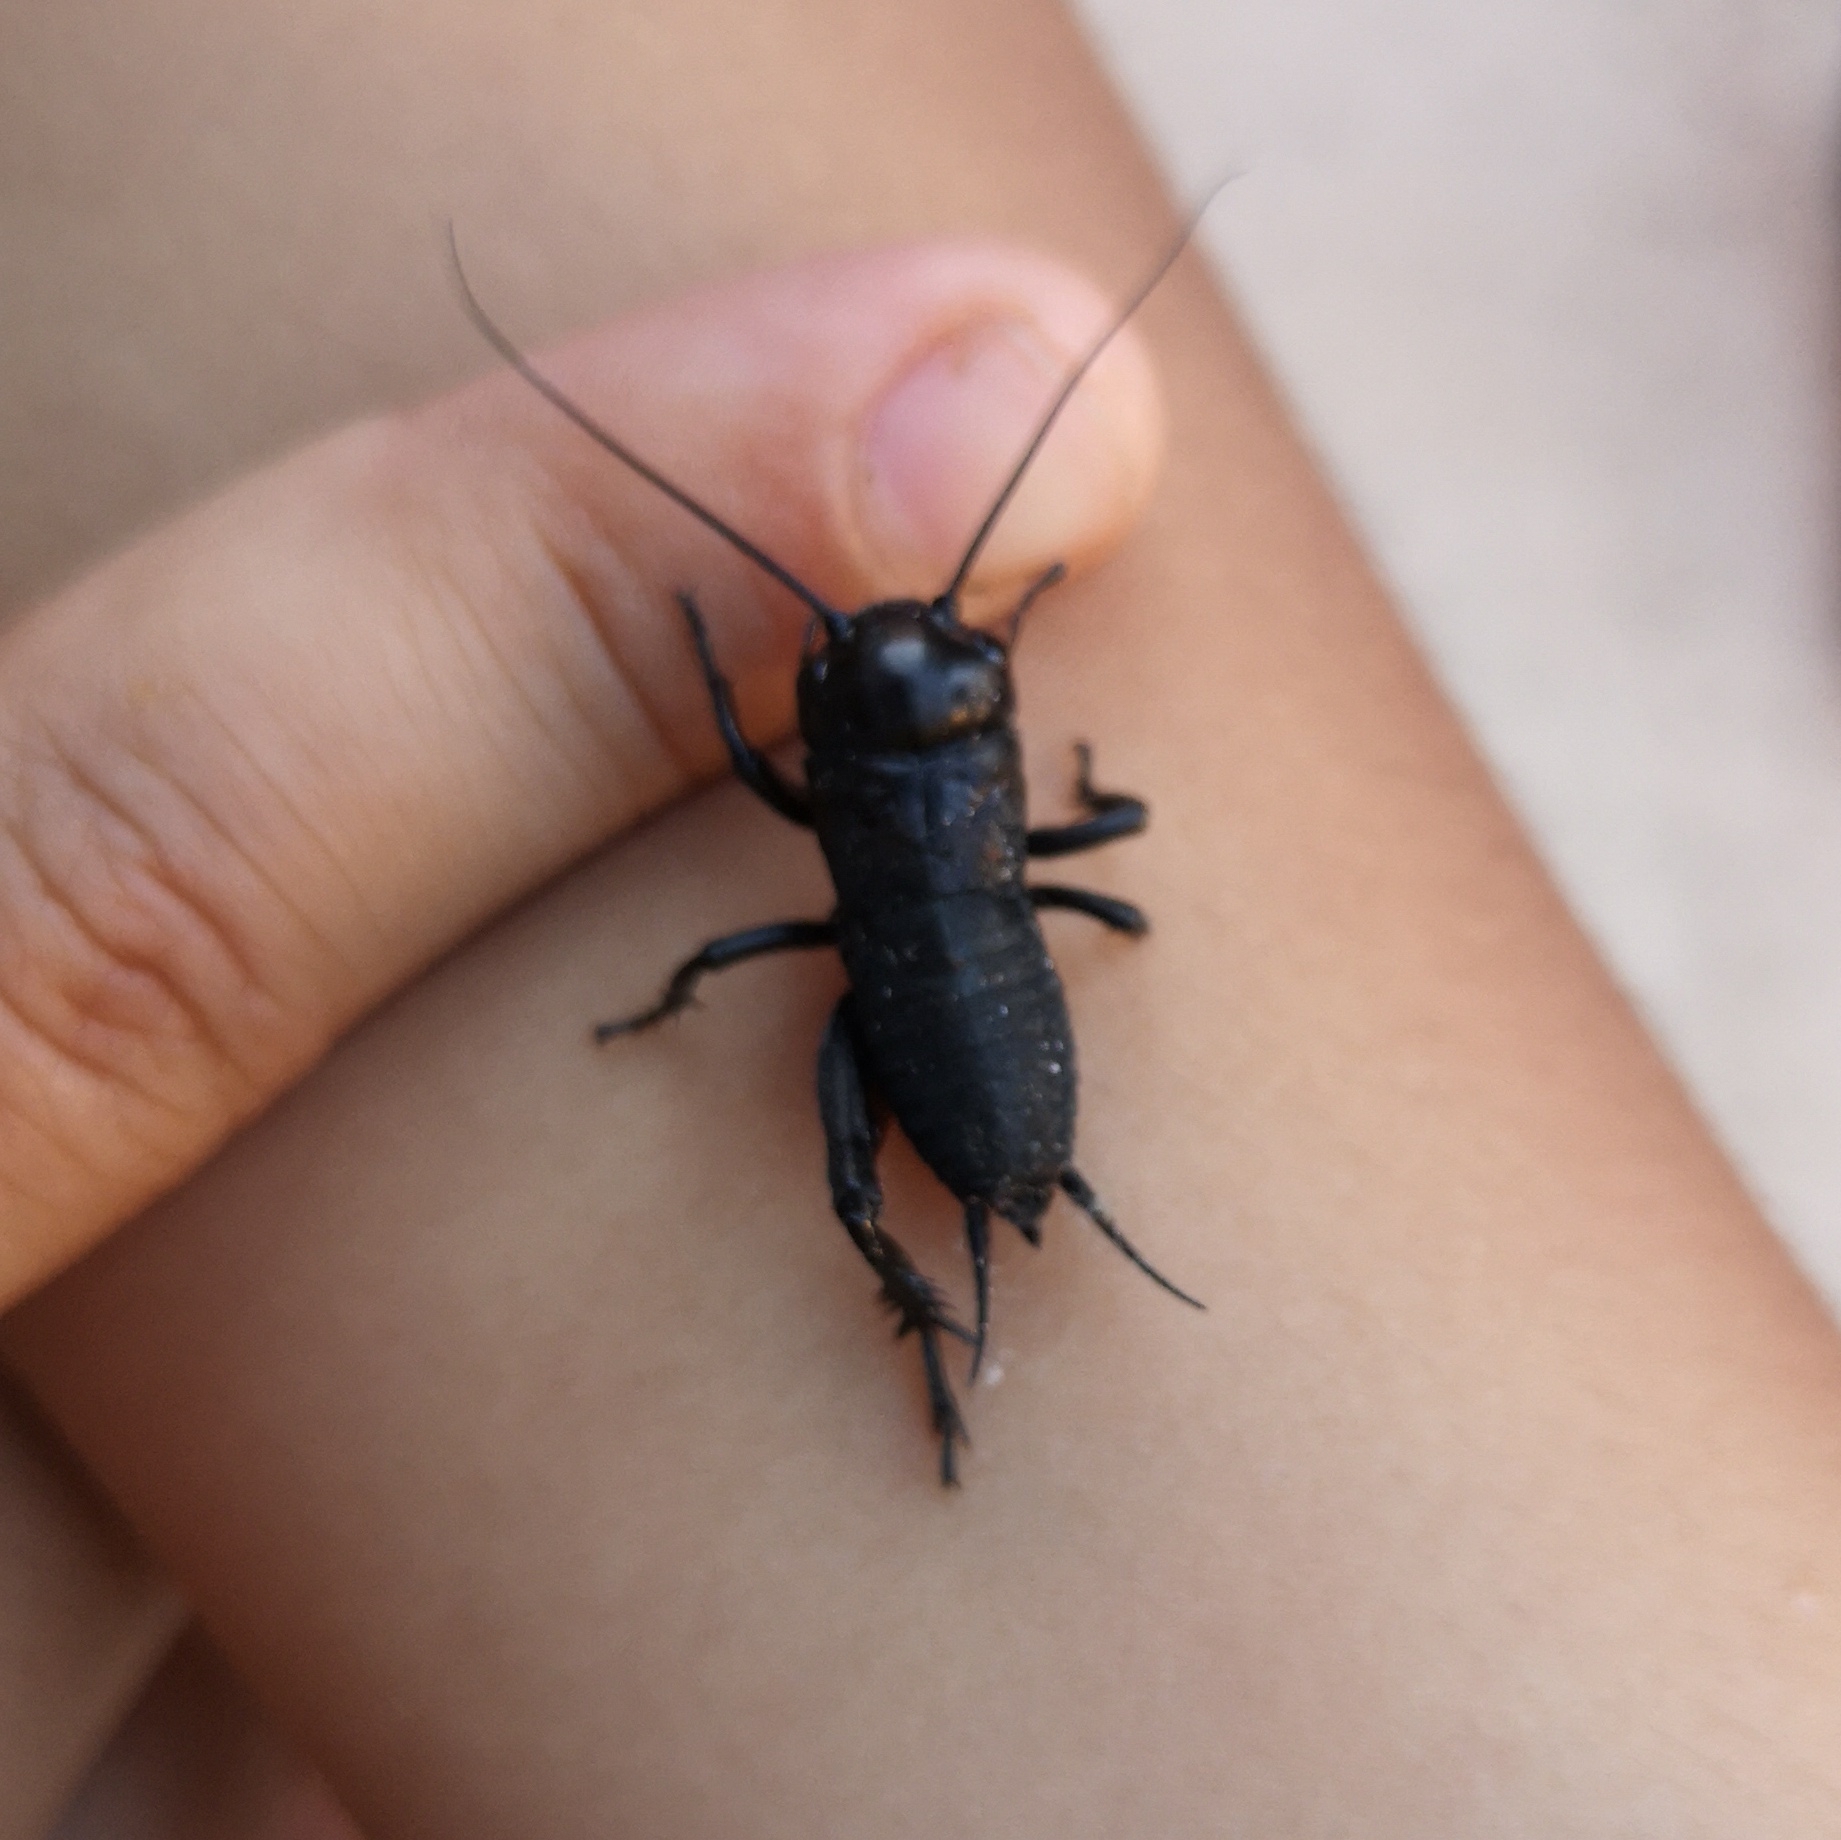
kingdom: Animalia
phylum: Arthropoda
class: Insecta
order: Orthoptera
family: Gryllidae
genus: Gryllus
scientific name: Gryllus campestris
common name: Field cricket
